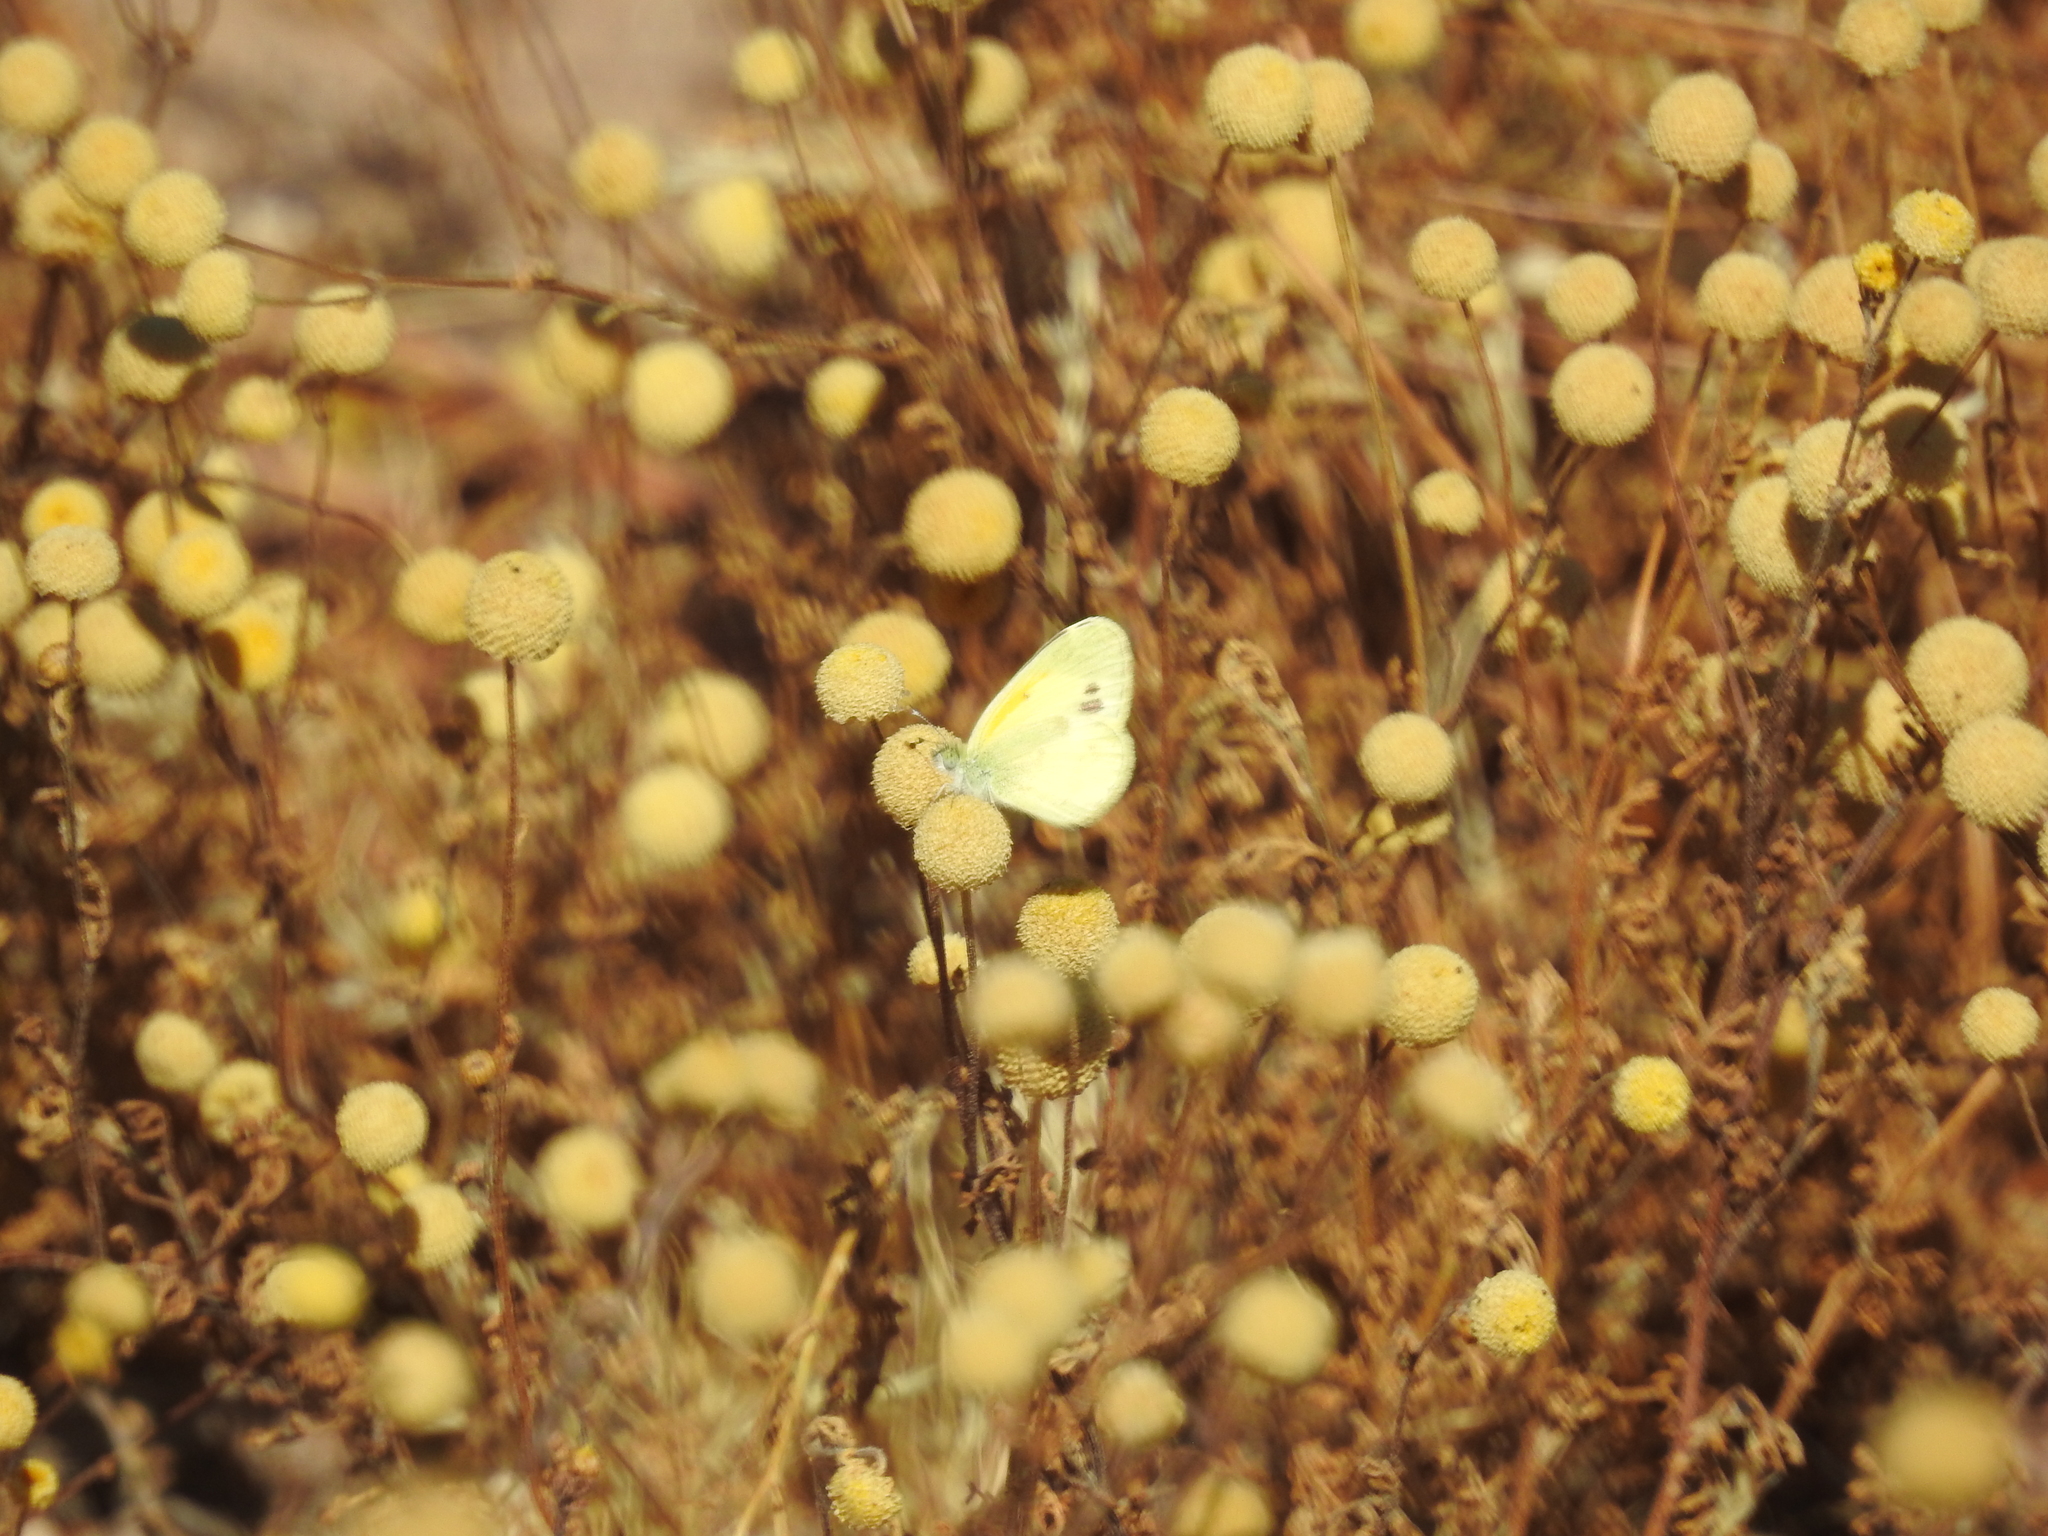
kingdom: Animalia
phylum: Arthropoda
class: Insecta
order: Lepidoptera
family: Pieridae
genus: Nathalis
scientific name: Nathalis iole
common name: Dainty sulphur
